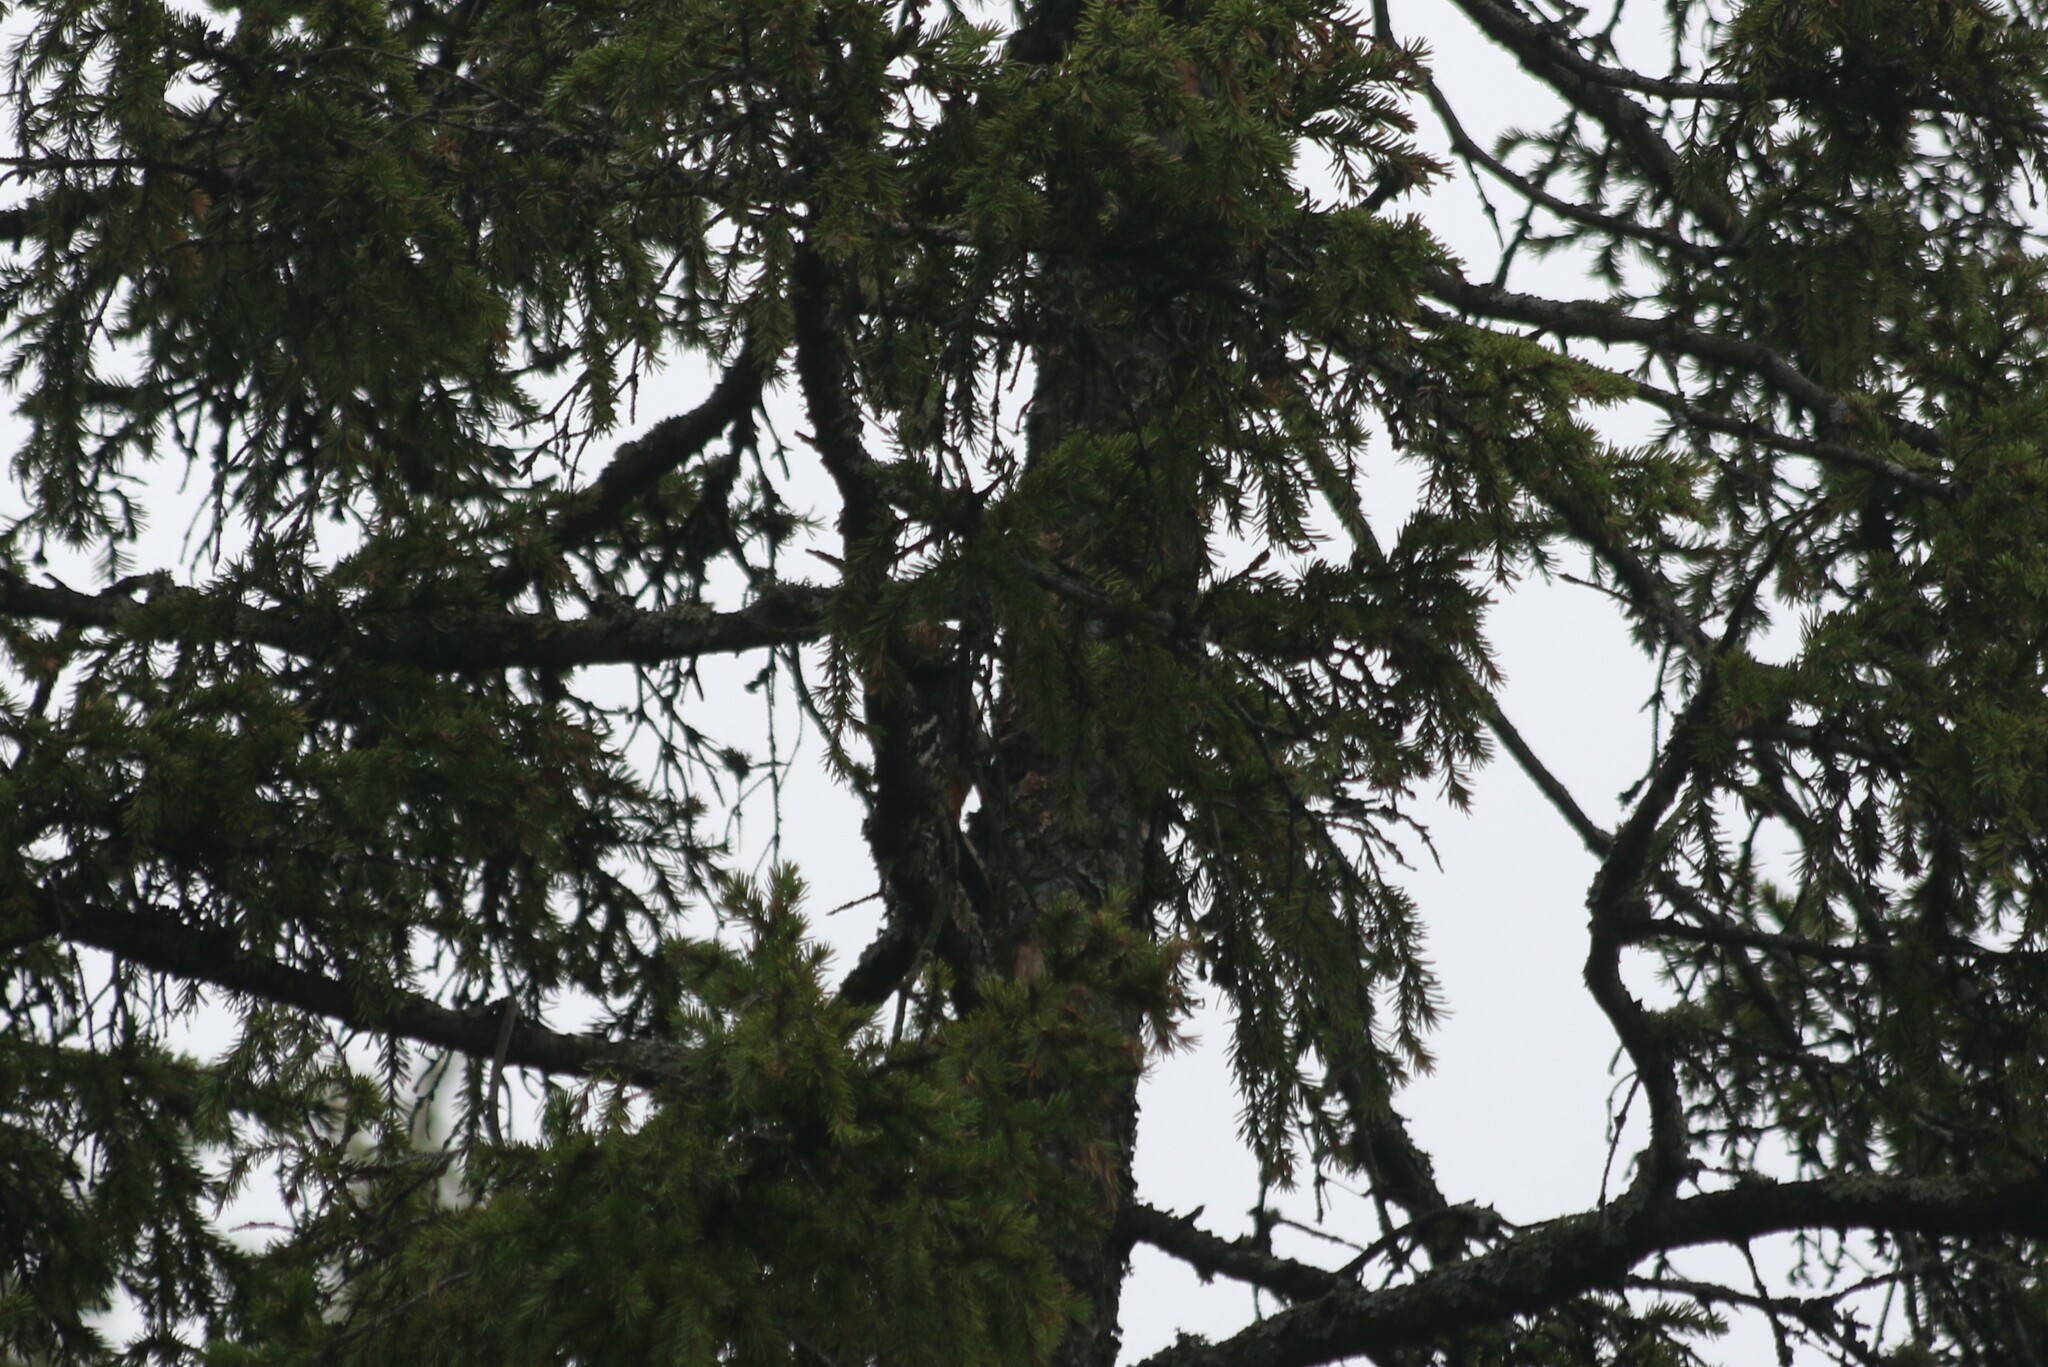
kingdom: Animalia
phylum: Chordata
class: Aves
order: Piciformes
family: Picidae
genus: Dendrocopos
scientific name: Dendrocopos major
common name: Great spotted woodpecker
